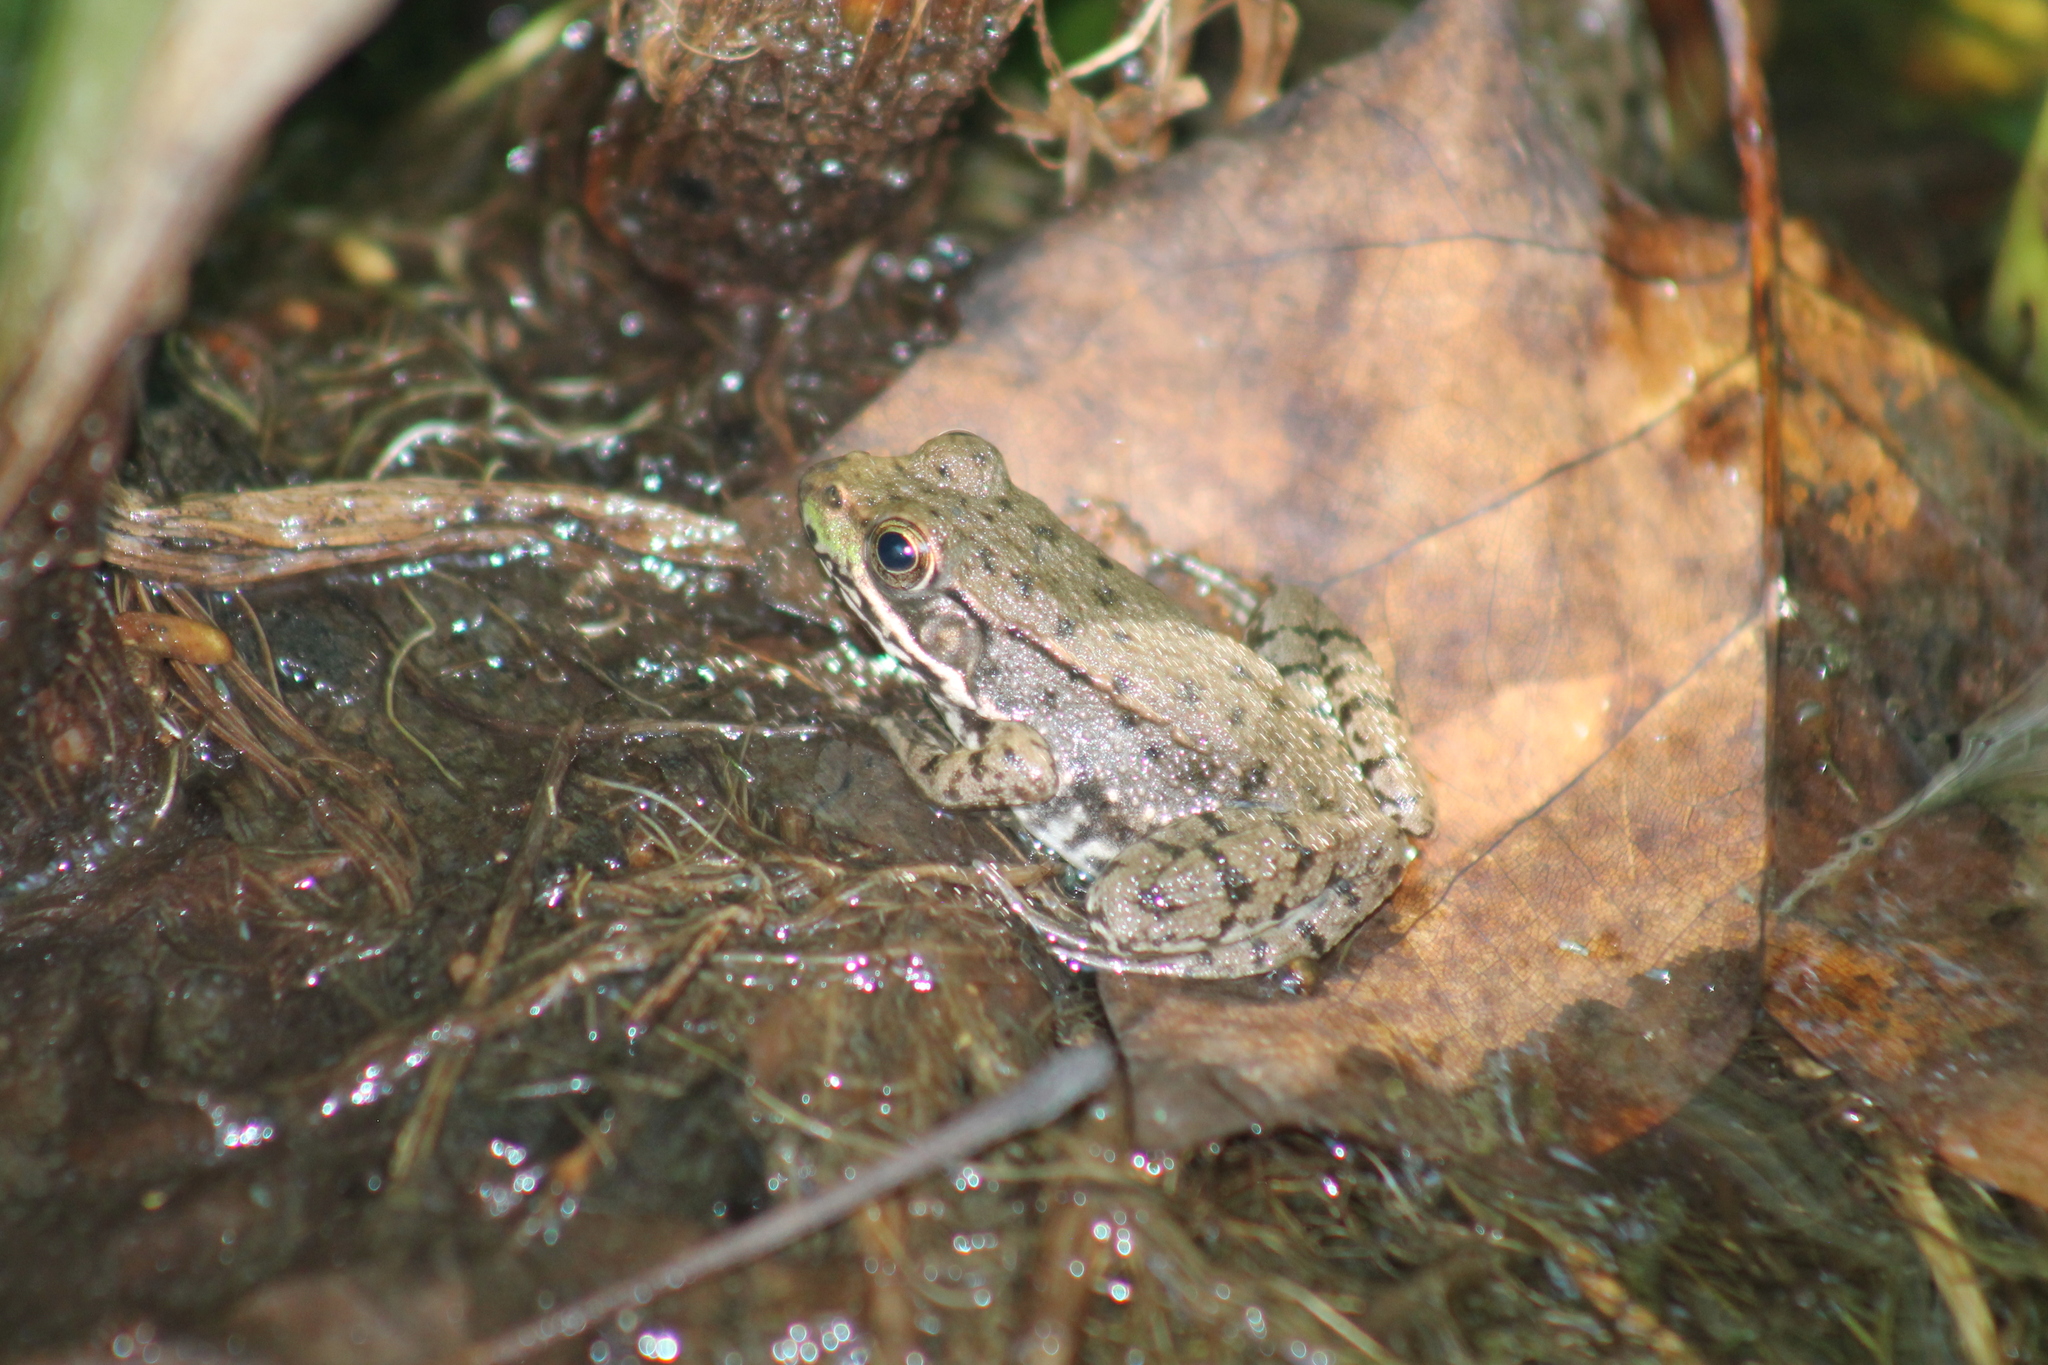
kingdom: Animalia
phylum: Chordata
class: Amphibia
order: Anura
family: Ranidae
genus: Lithobates
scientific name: Lithobates clamitans
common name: Green frog
